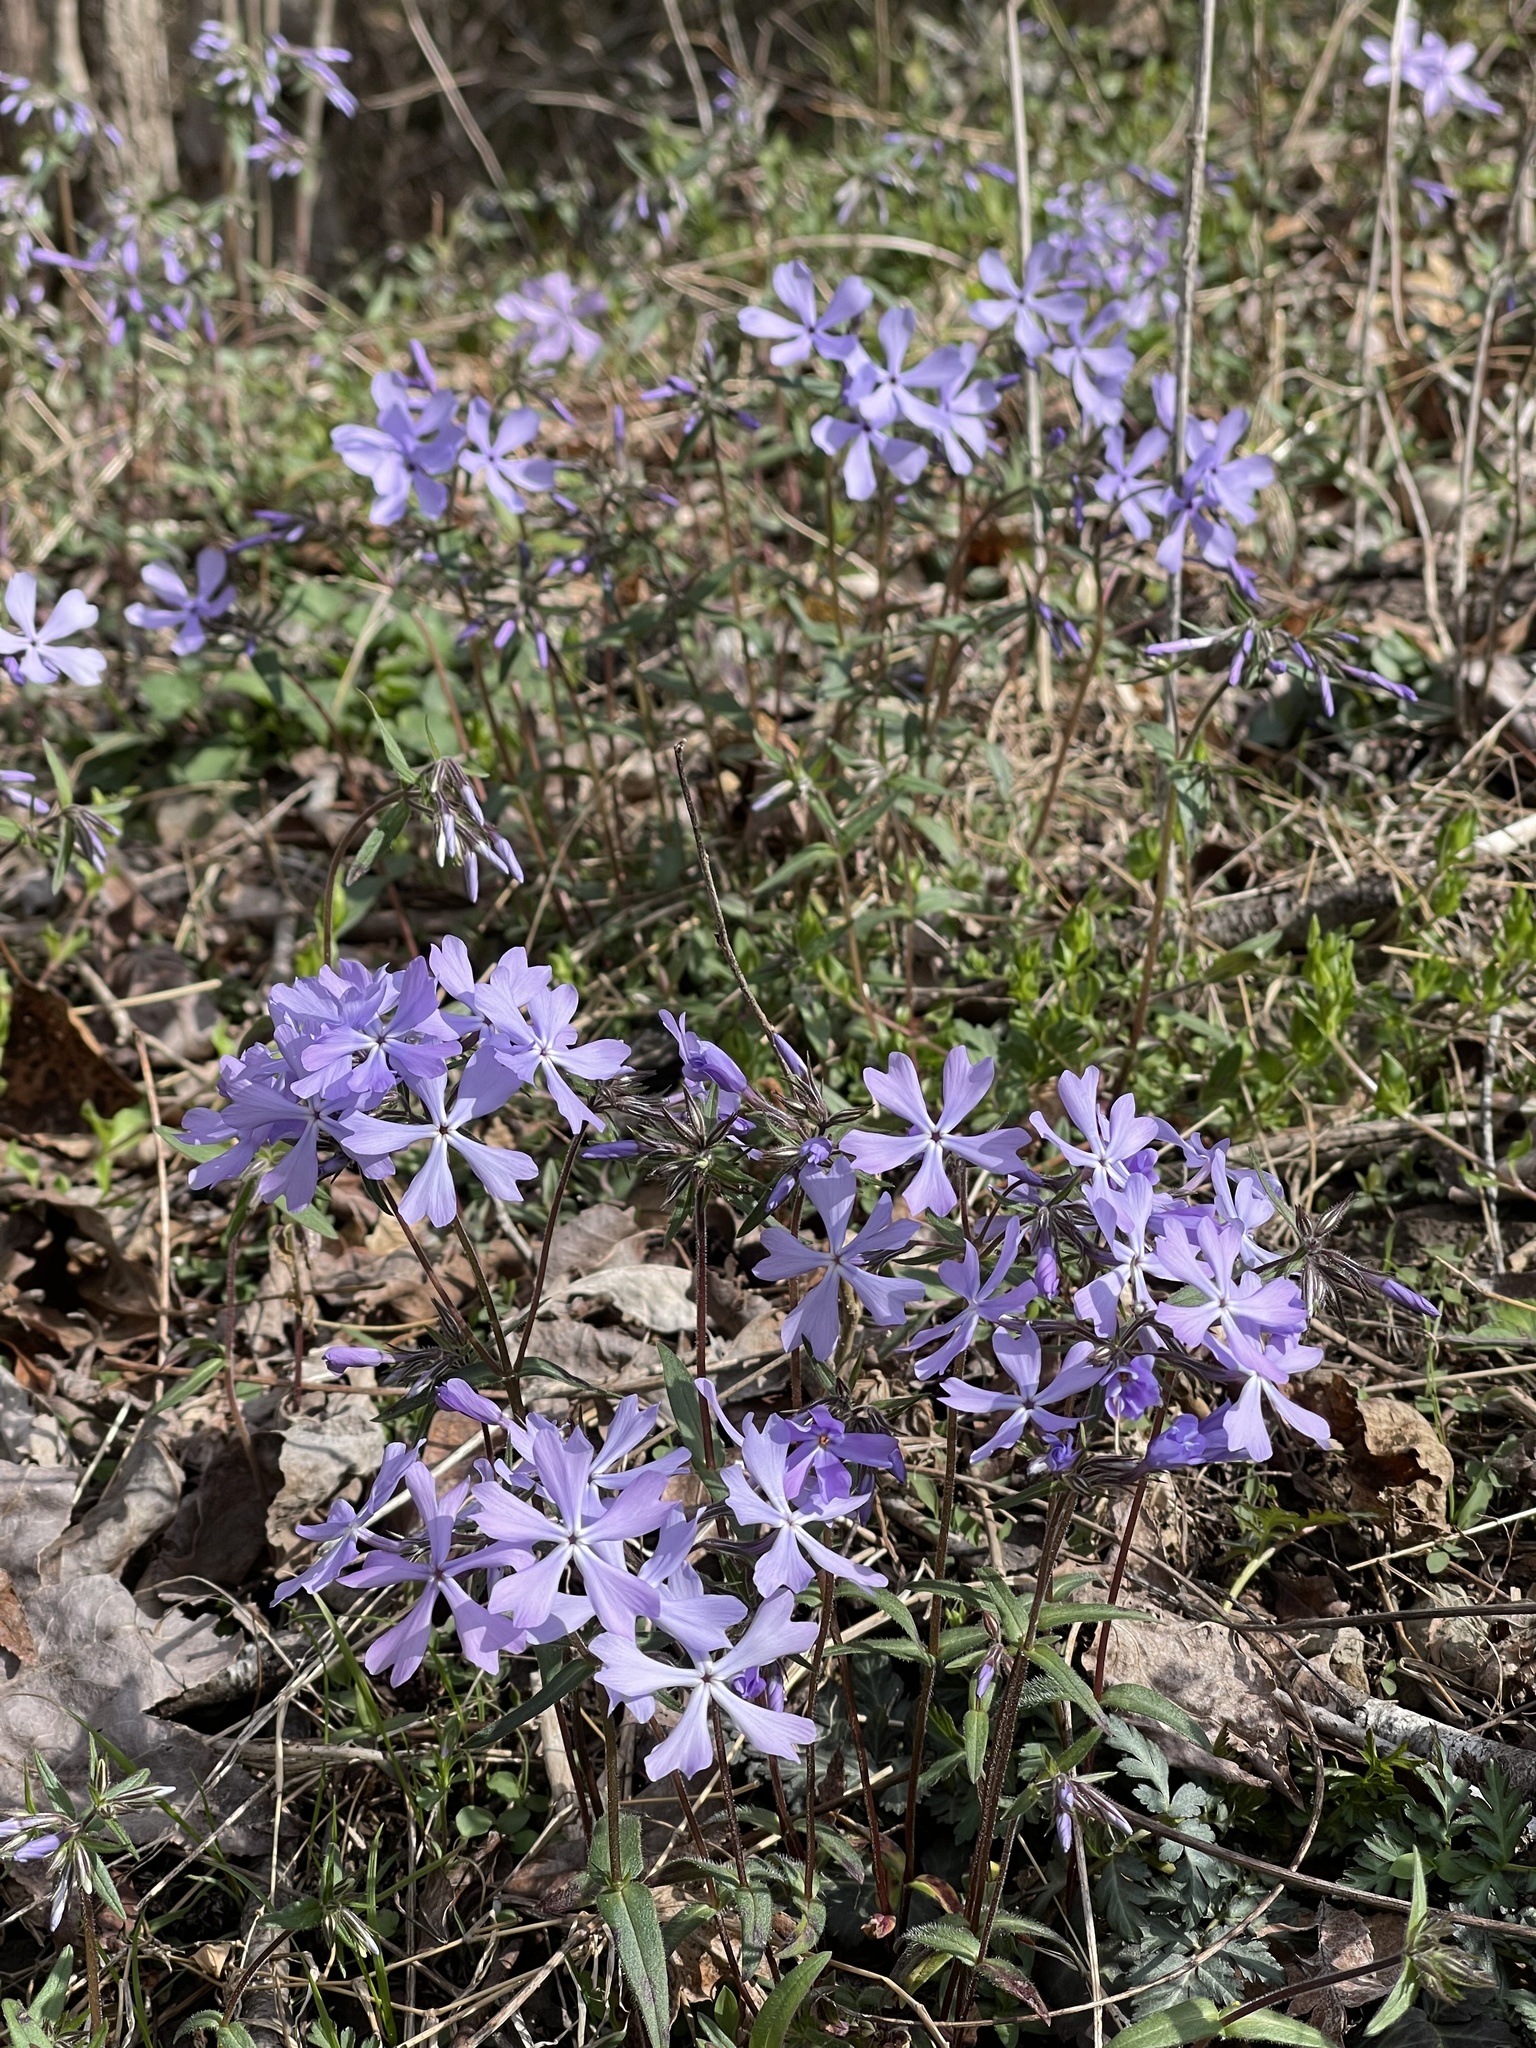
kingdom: Plantae
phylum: Tracheophyta
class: Magnoliopsida
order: Ericales
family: Polemoniaceae
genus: Phlox
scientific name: Phlox divaricata
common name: Blue phlox
